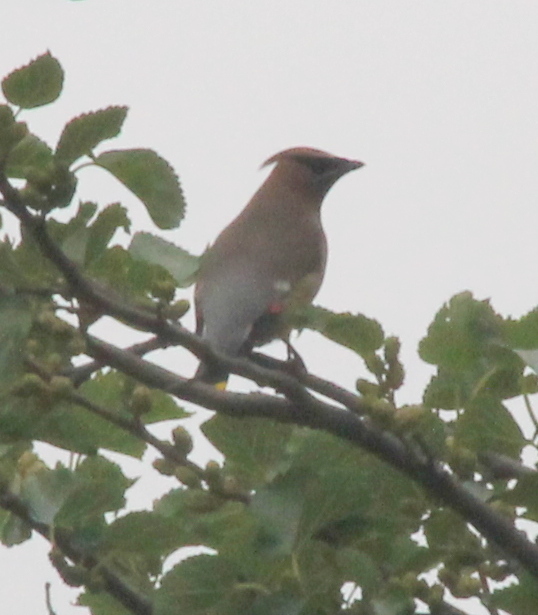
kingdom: Animalia
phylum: Chordata
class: Aves
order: Passeriformes
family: Bombycillidae
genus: Bombycilla
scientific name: Bombycilla cedrorum
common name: Cedar waxwing
